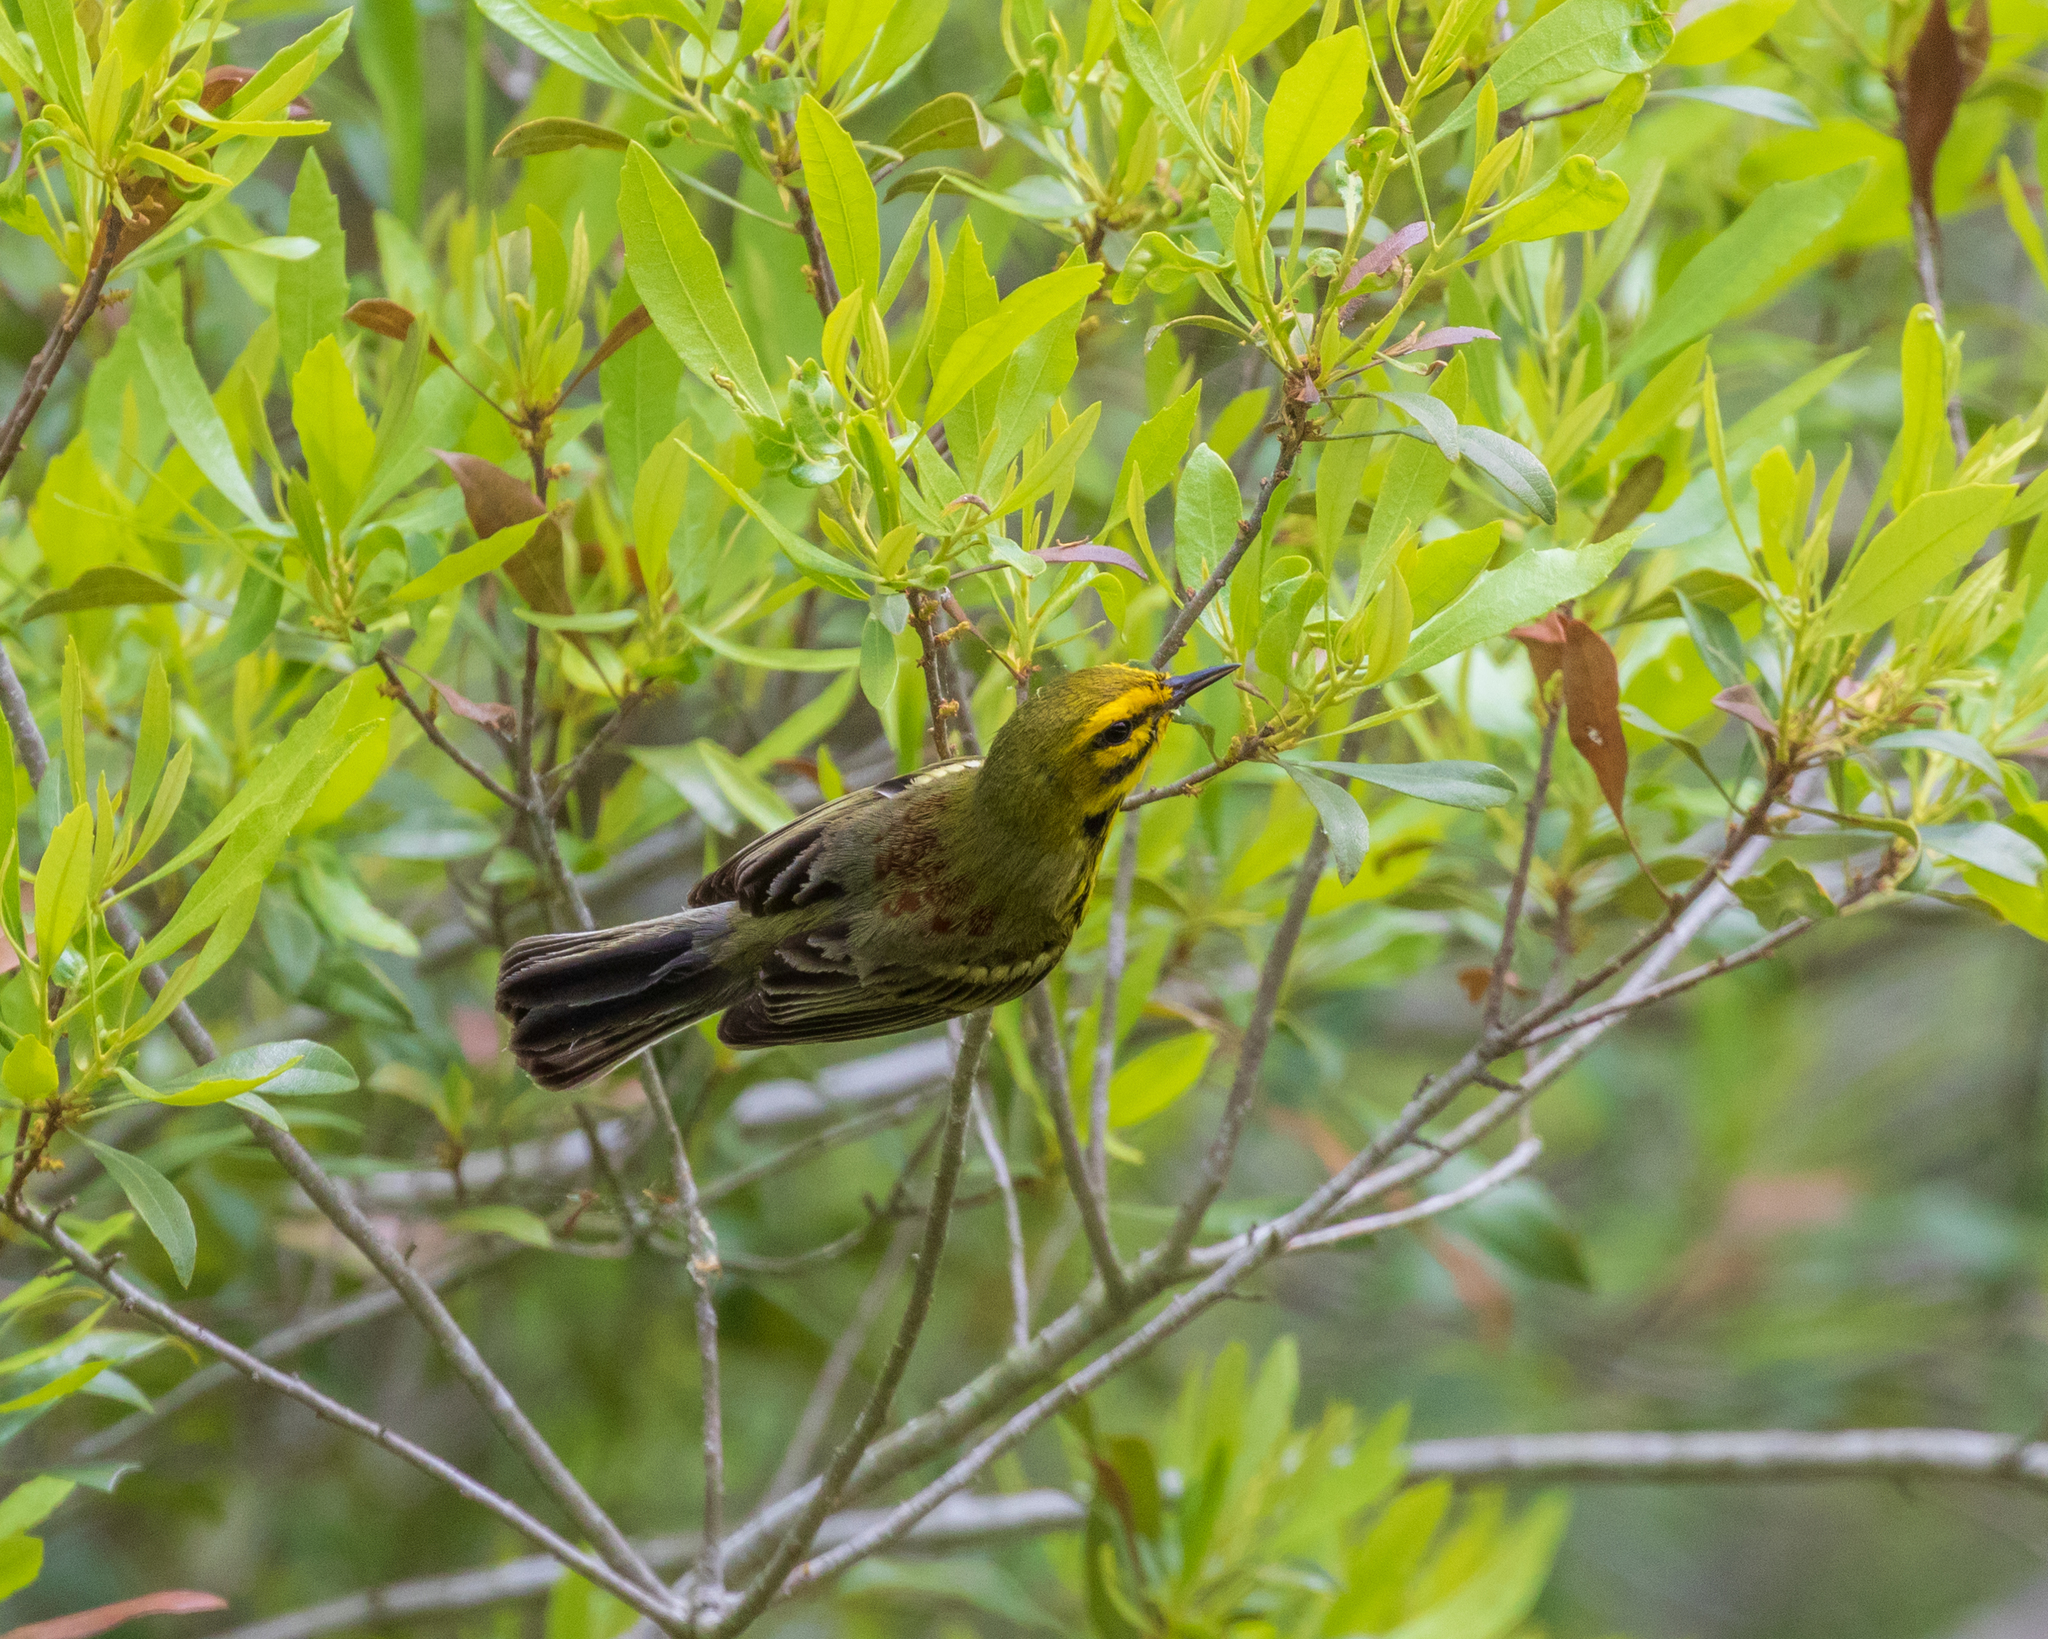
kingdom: Animalia
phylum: Chordata
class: Aves
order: Passeriformes
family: Parulidae
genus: Setophaga
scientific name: Setophaga discolor
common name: Prairie warbler
